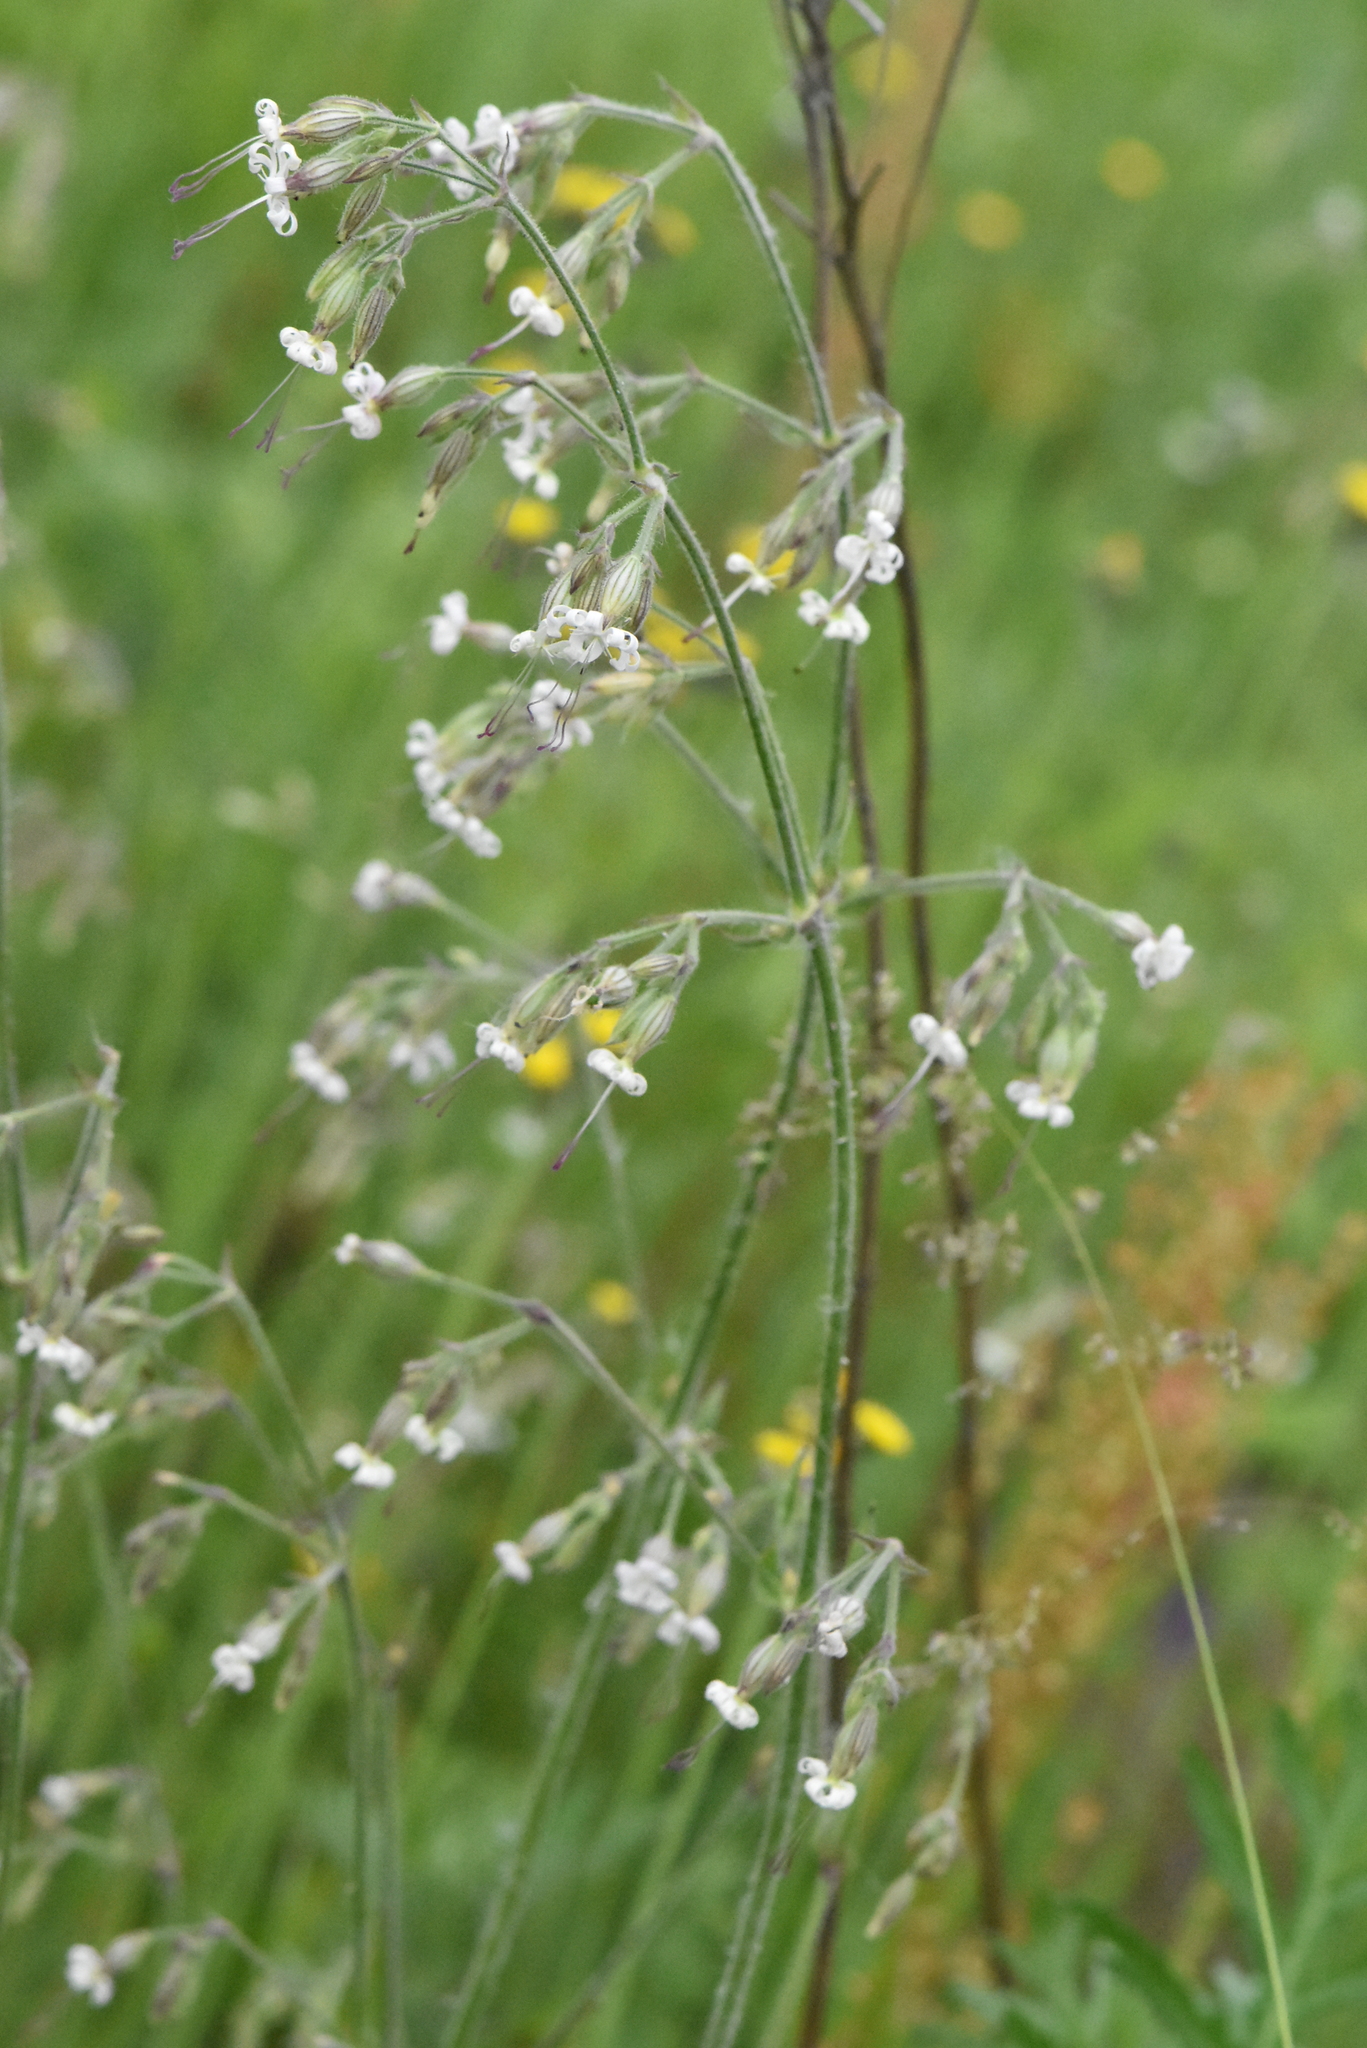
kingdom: Plantae
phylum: Tracheophyta
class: Magnoliopsida
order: Caryophyllales
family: Caryophyllaceae
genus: Silene
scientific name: Silene nutans
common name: Nottingham catchfly
